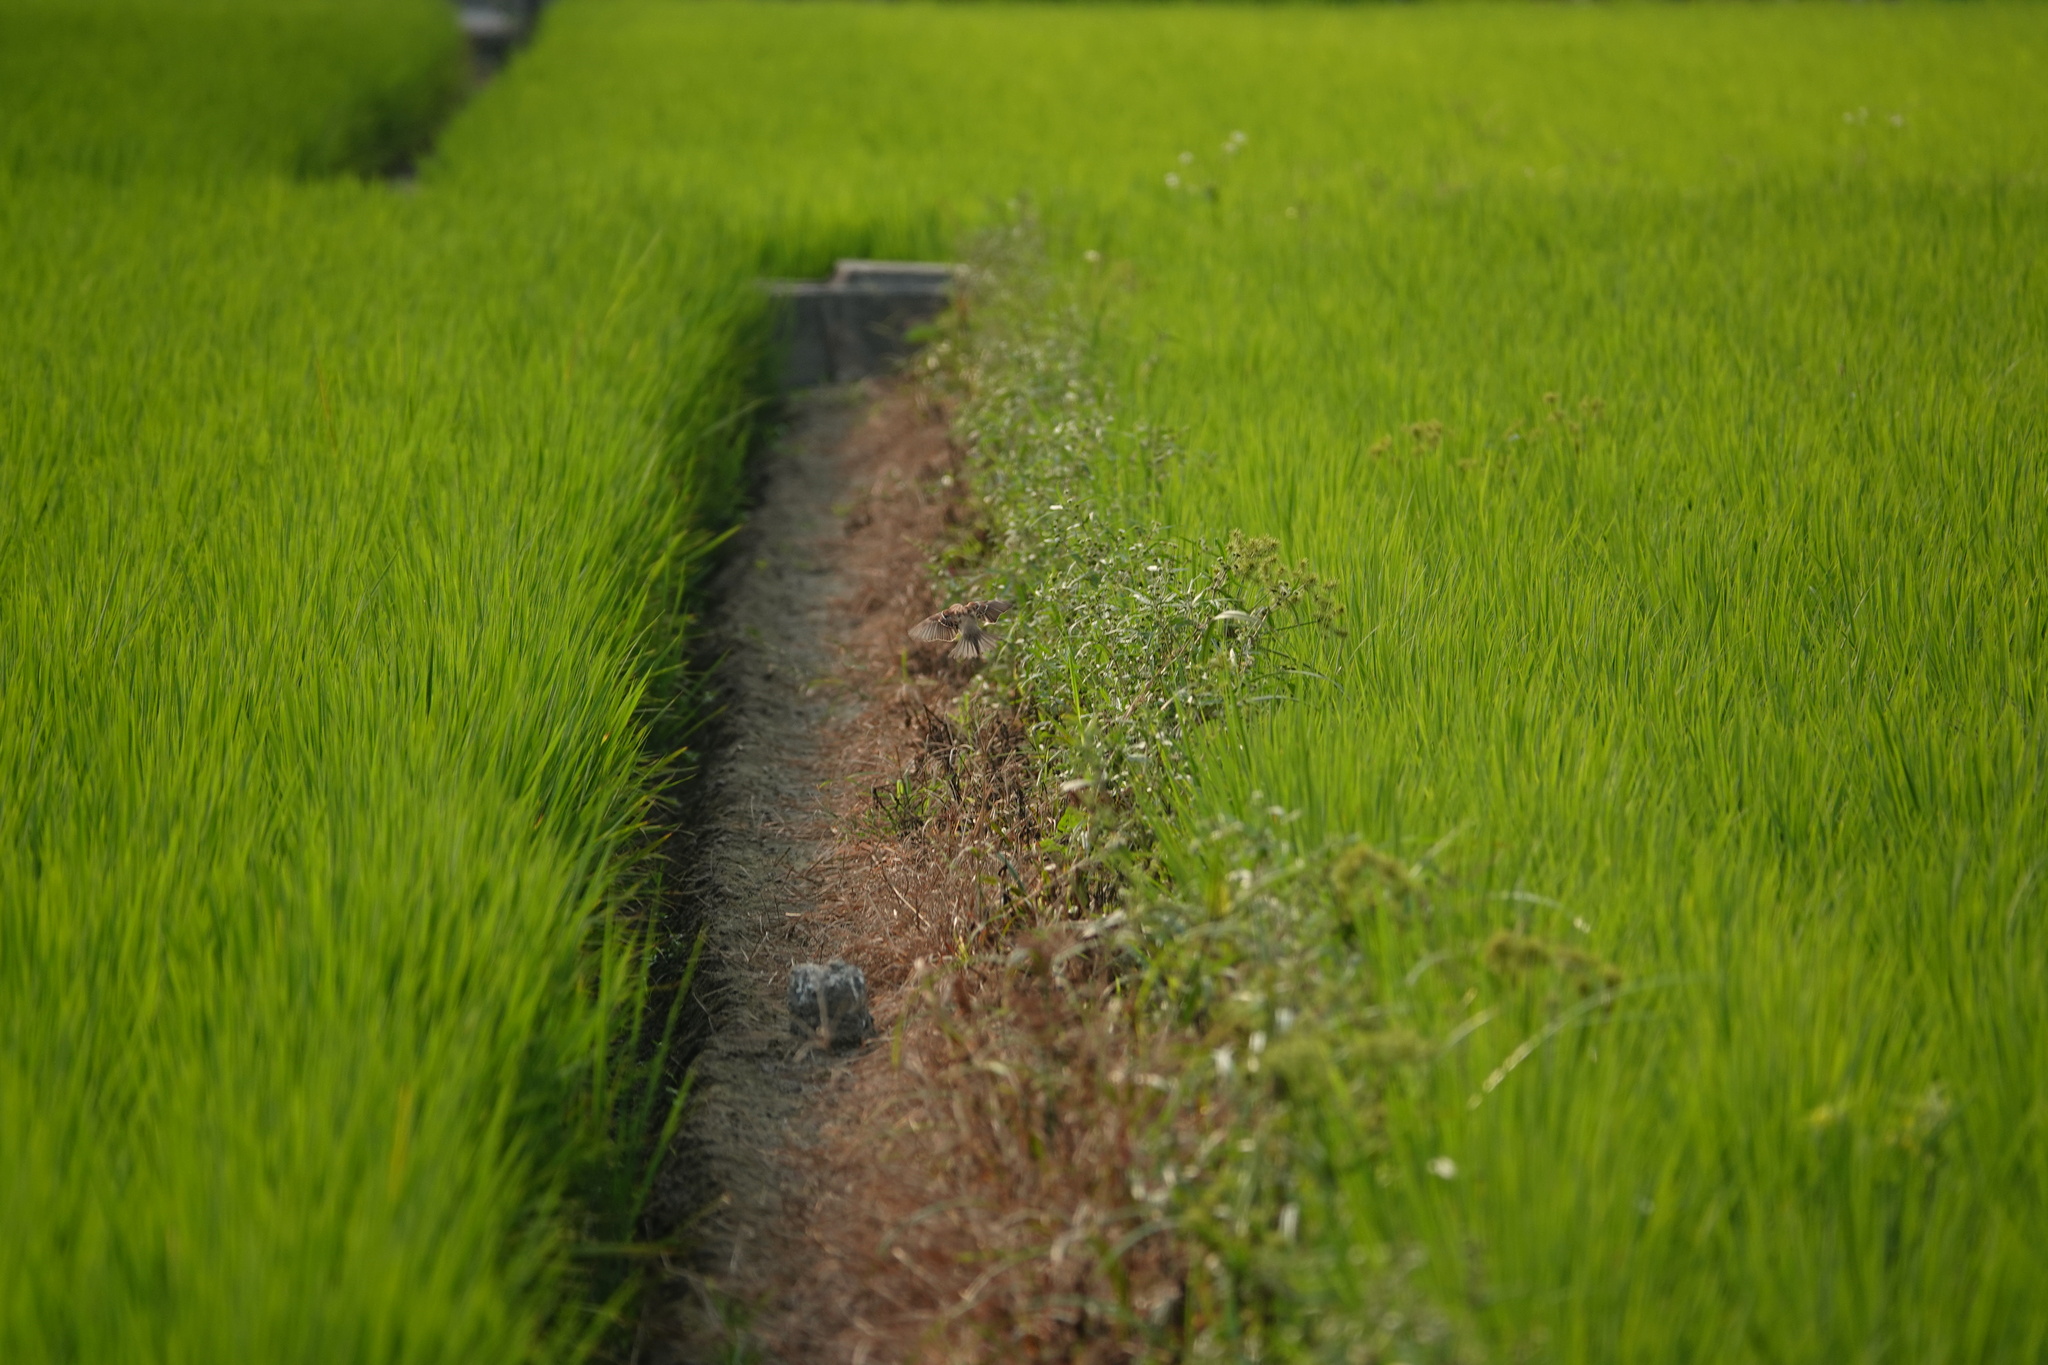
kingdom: Animalia
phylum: Chordata
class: Aves
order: Passeriformes
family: Passeridae
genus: Passer
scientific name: Passer montanus
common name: Eurasian tree sparrow
